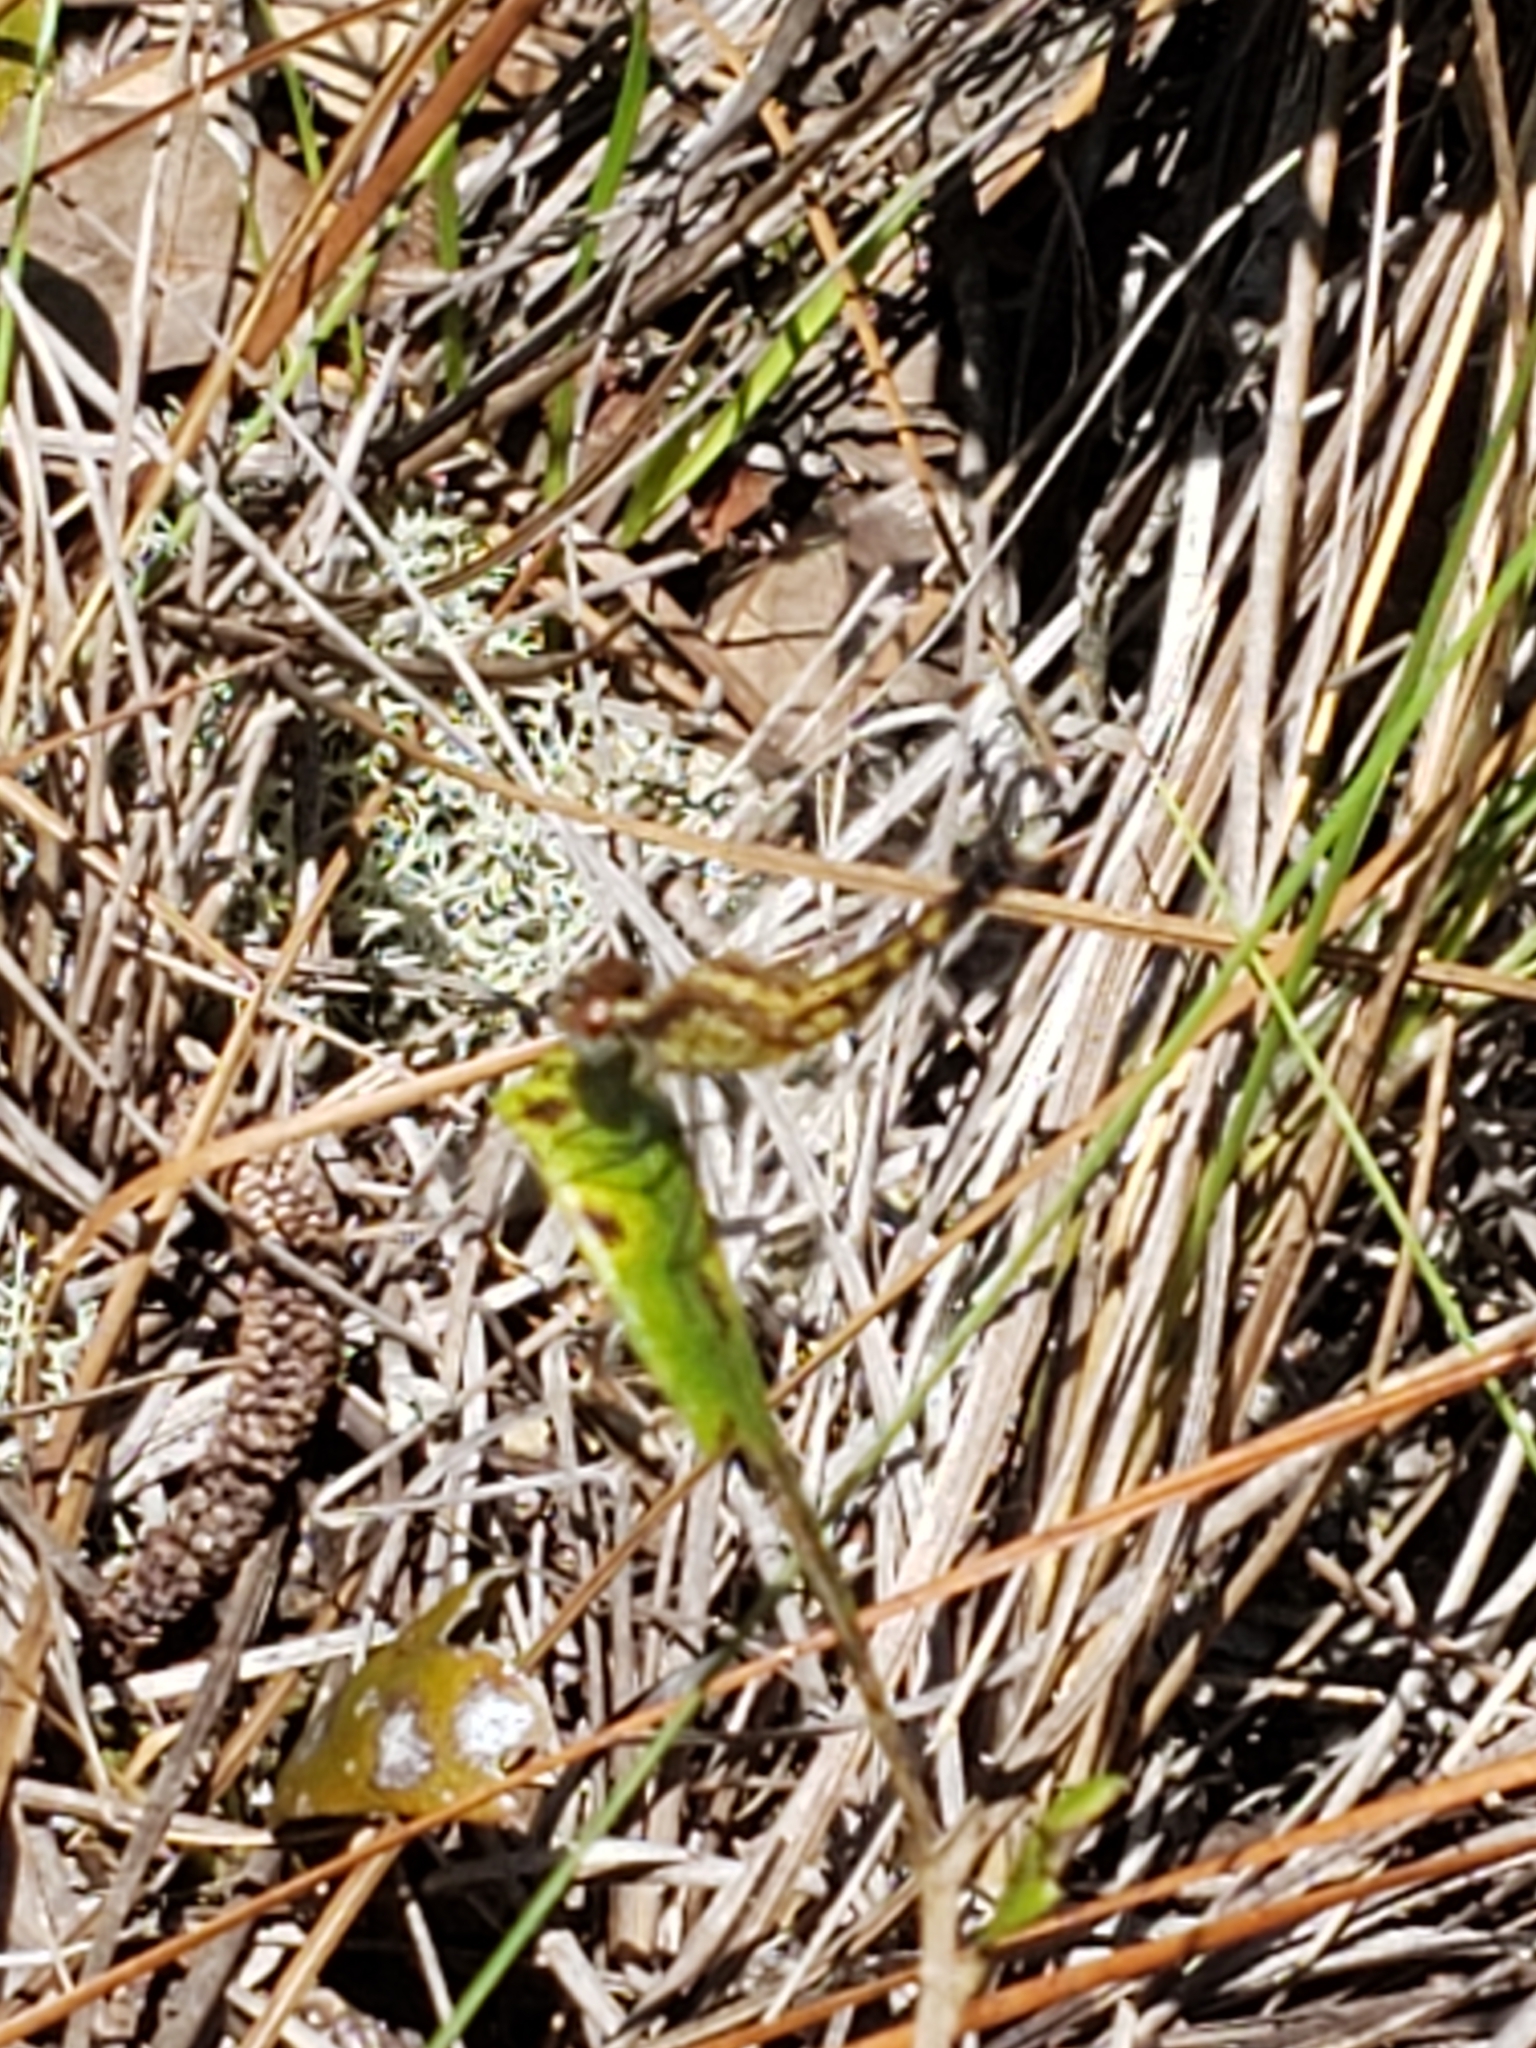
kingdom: Animalia
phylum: Arthropoda
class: Insecta
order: Odonata
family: Libellulidae
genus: Erythrodiplax
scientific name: Erythrodiplax minuscula
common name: Little blue dragonlet
